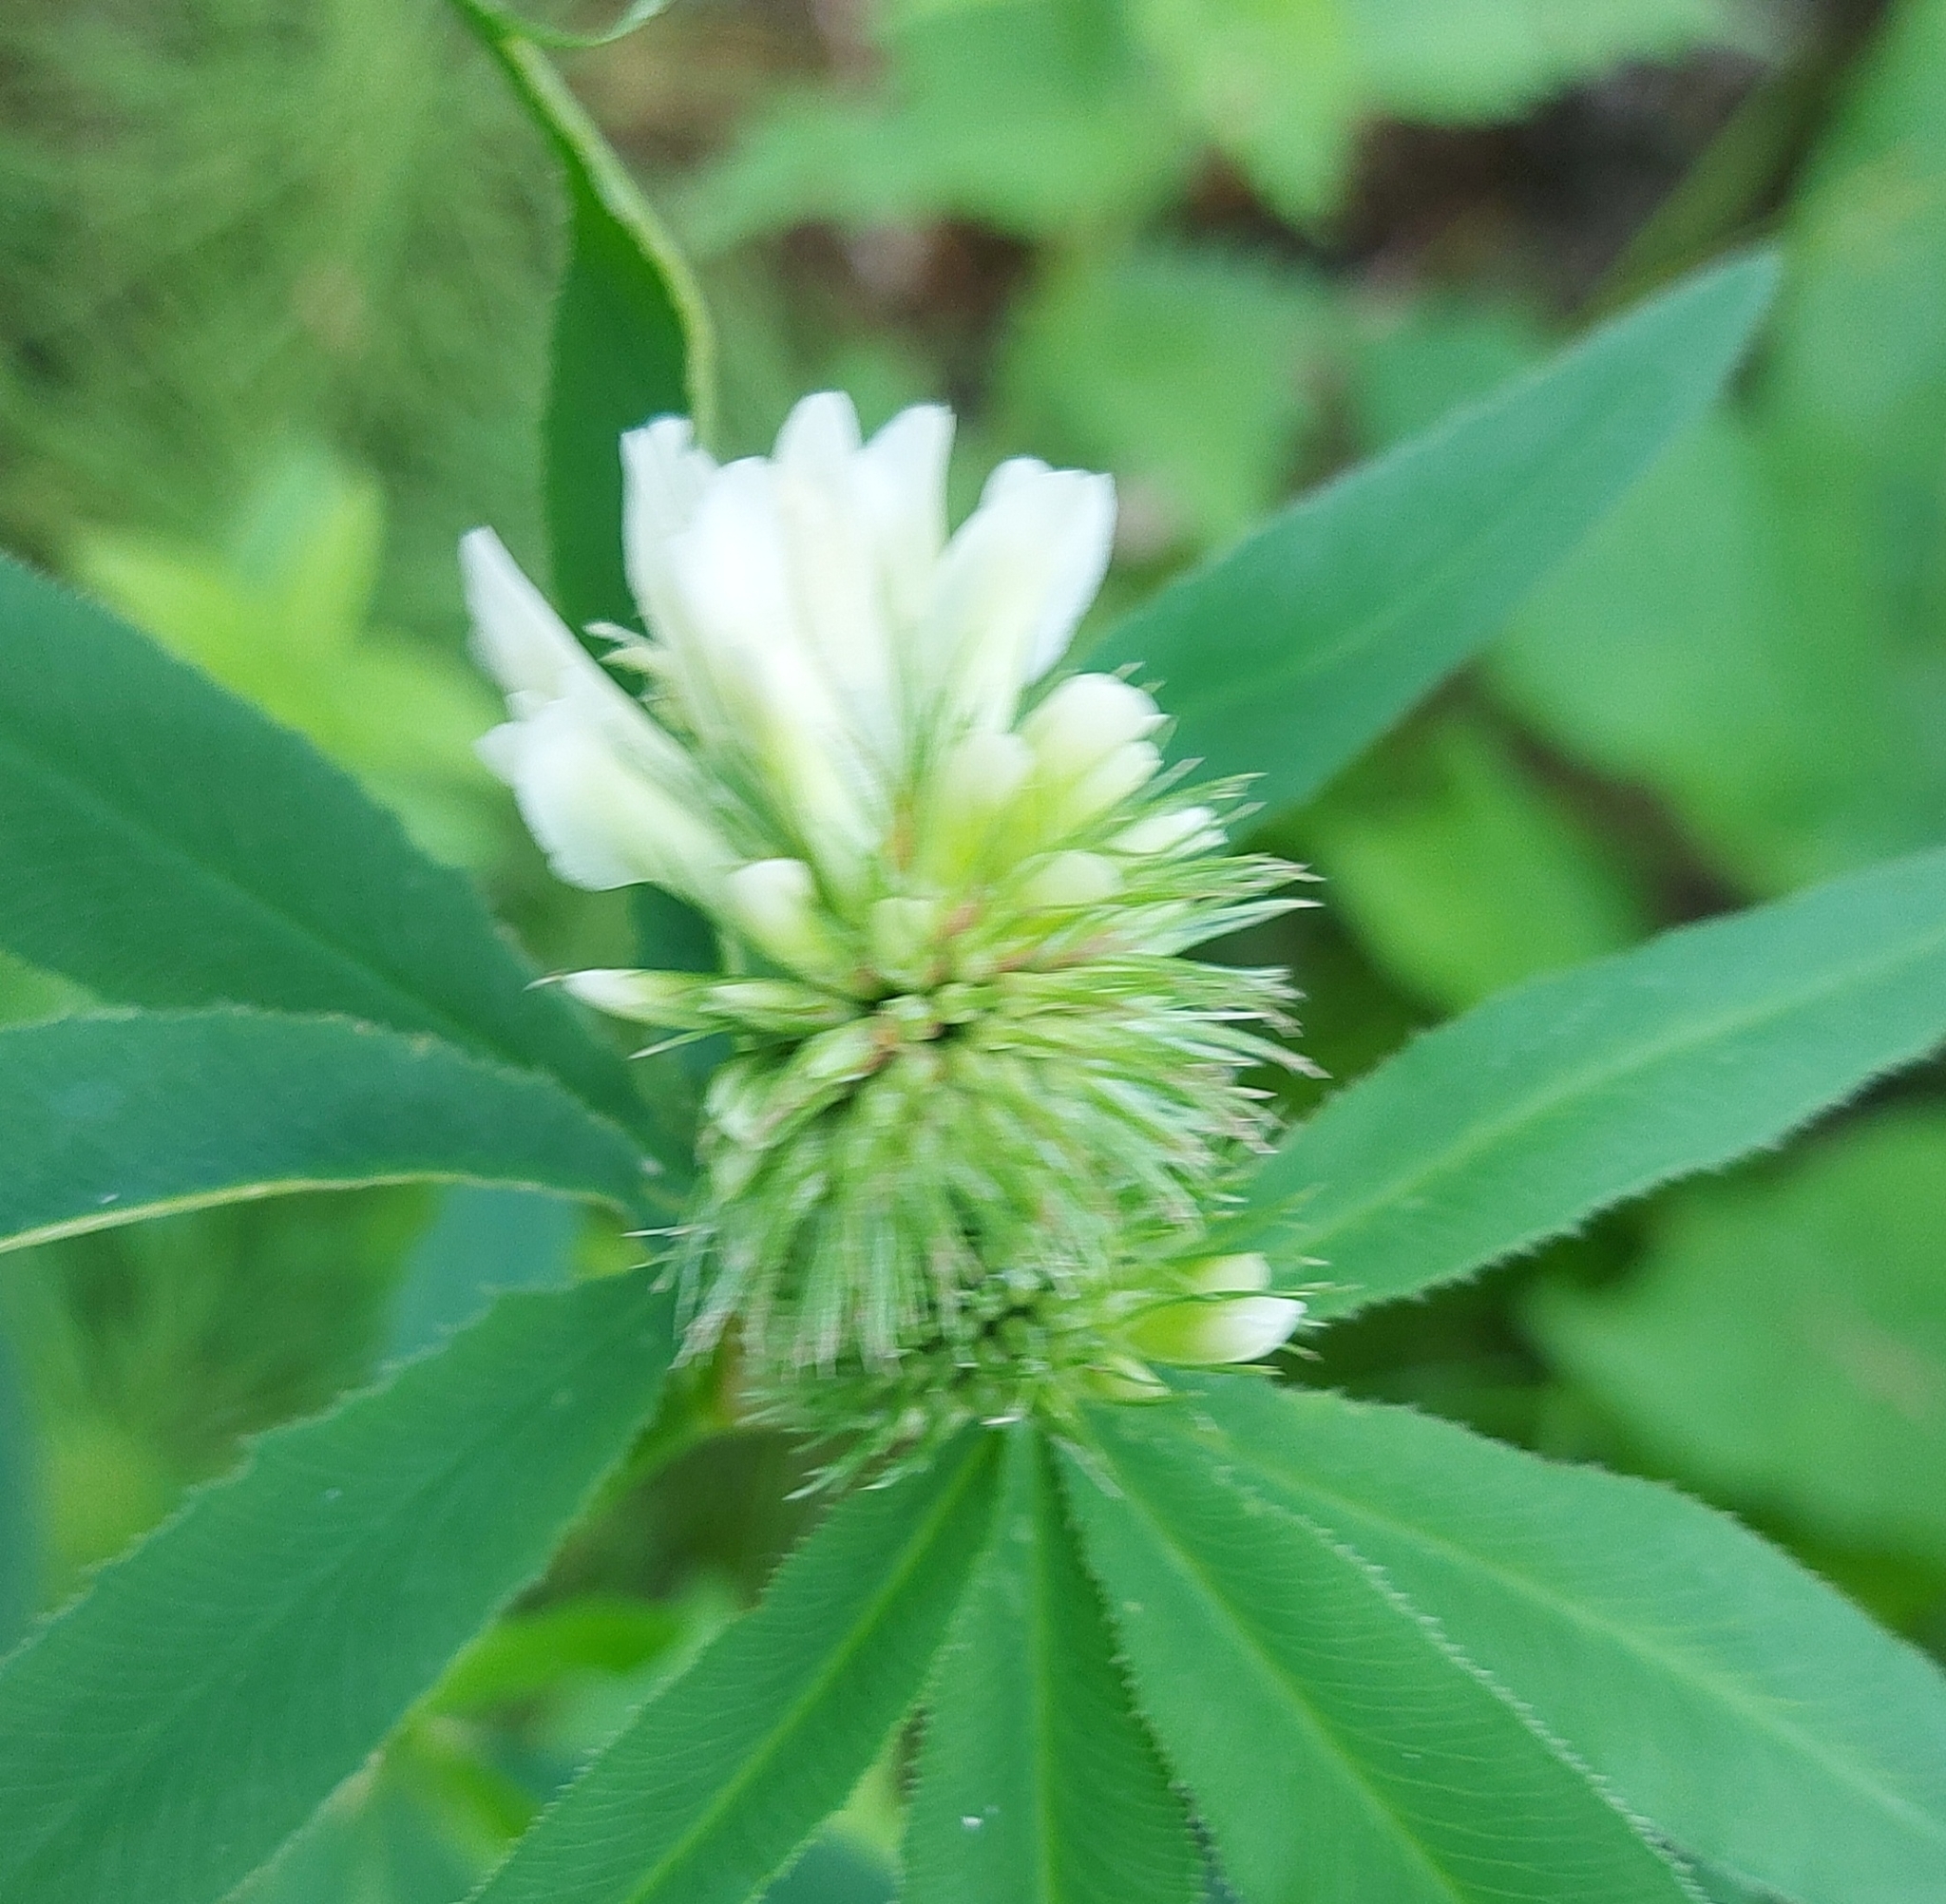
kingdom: Plantae
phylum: Tracheophyta
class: Magnoliopsida
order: Fabales
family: Fabaceae
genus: Trifolium
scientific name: Trifolium lupinaster
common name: Lupine clover
